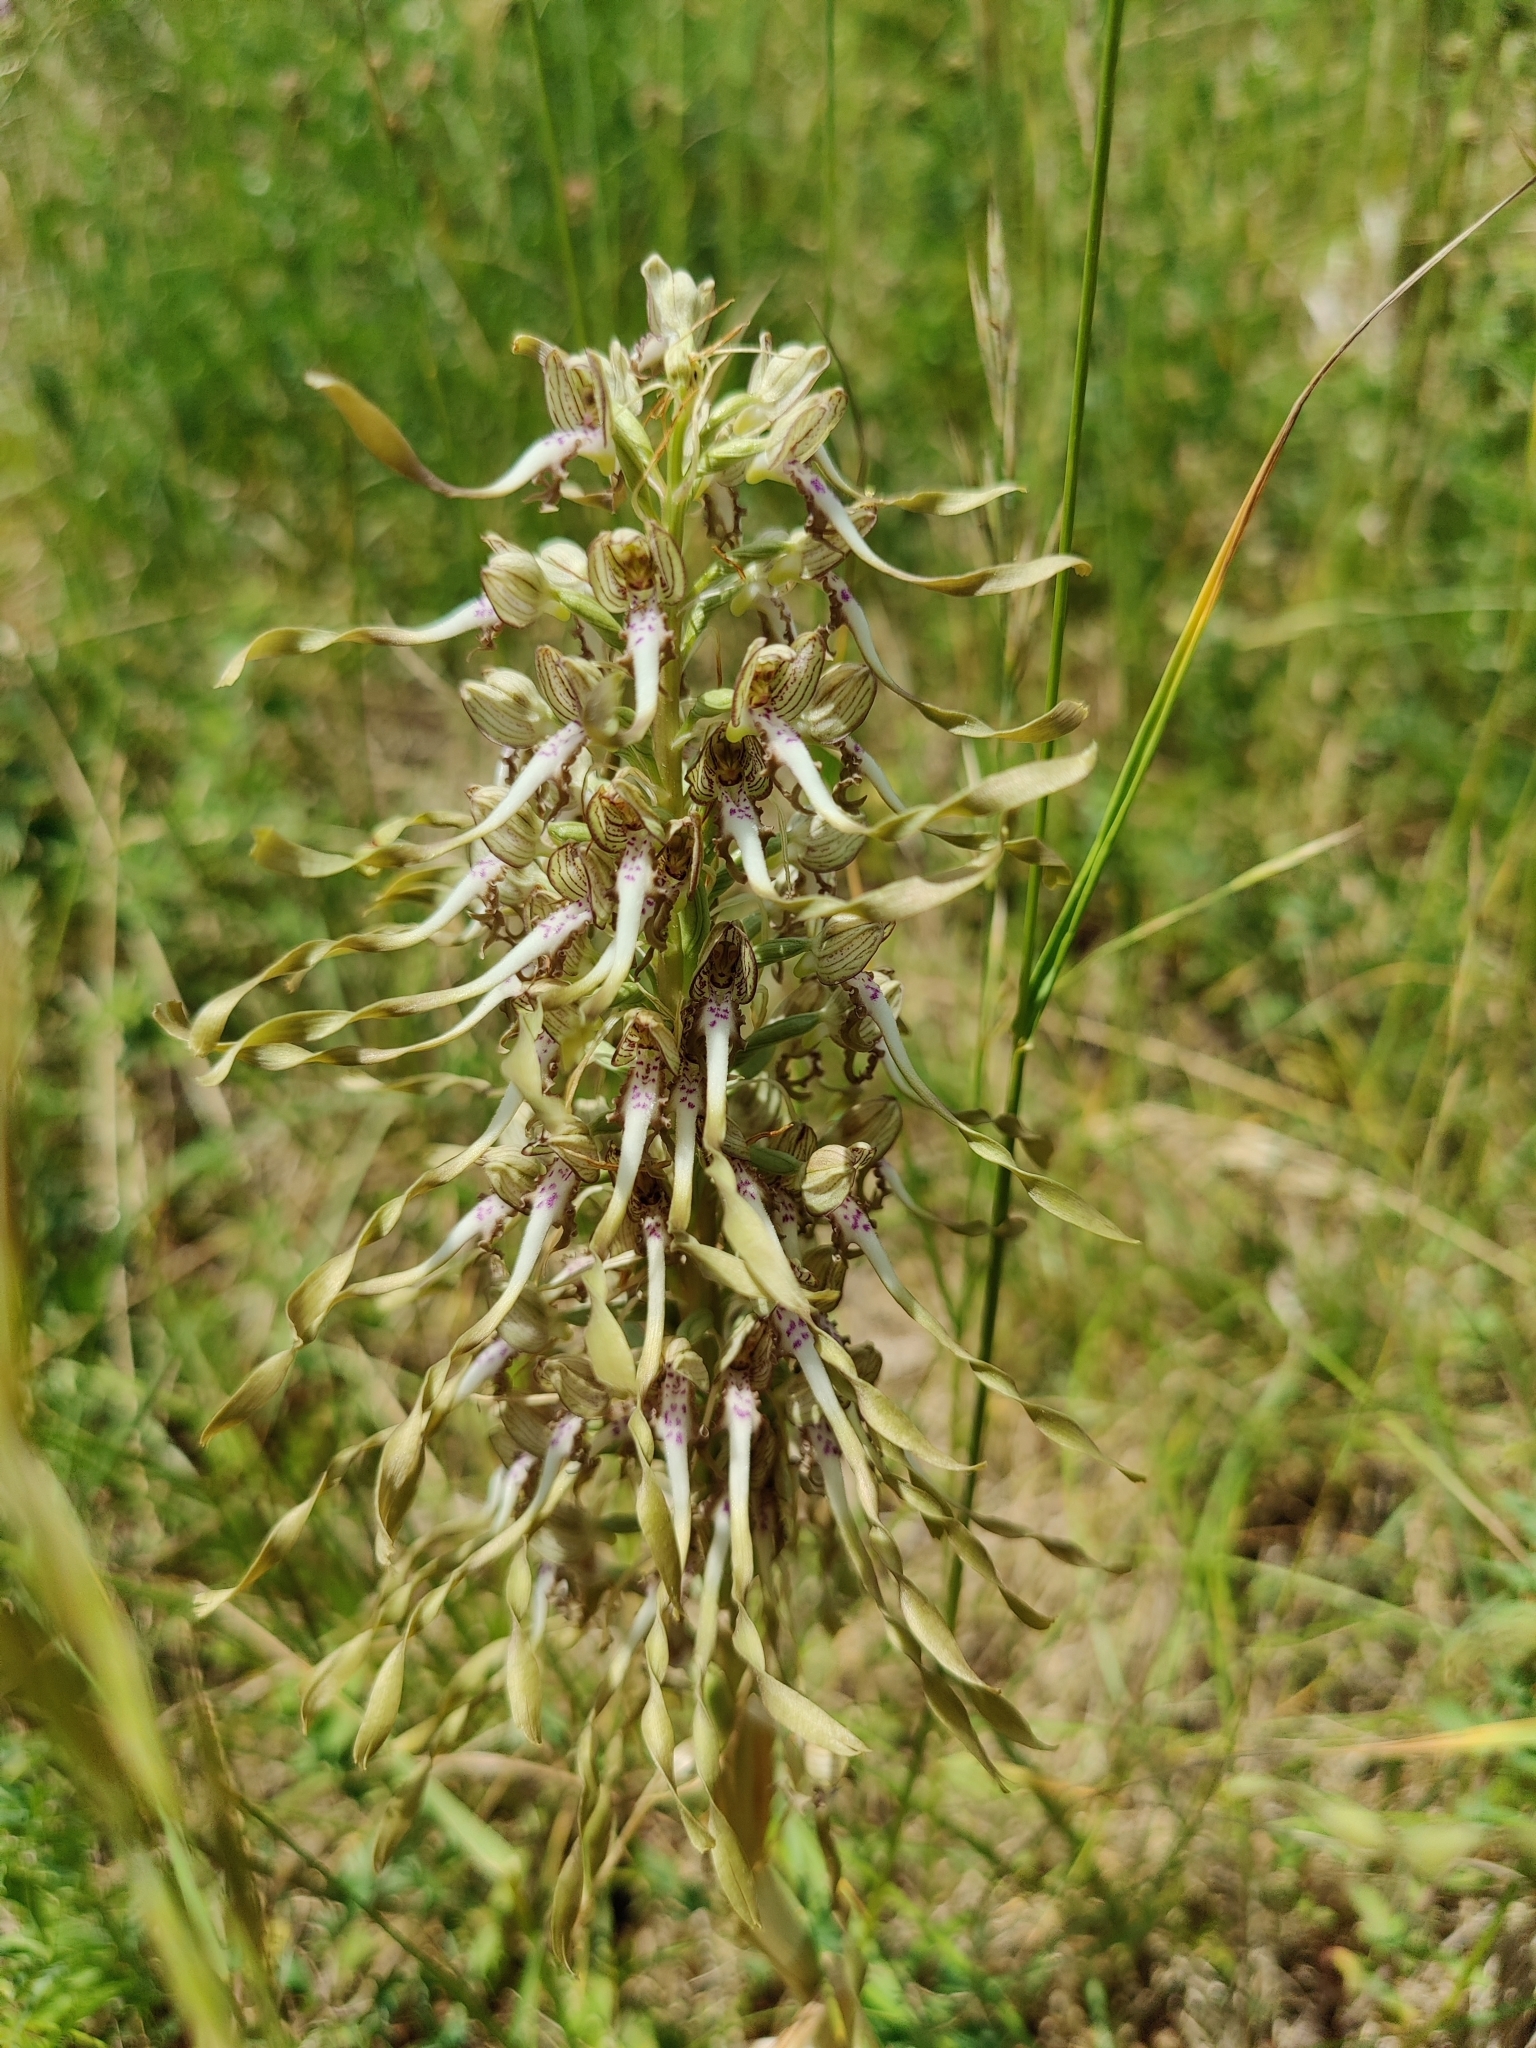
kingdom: Plantae
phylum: Tracheophyta
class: Liliopsida
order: Asparagales
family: Orchidaceae
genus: Himantoglossum
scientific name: Himantoglossum hircinum
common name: Lizard orchid
